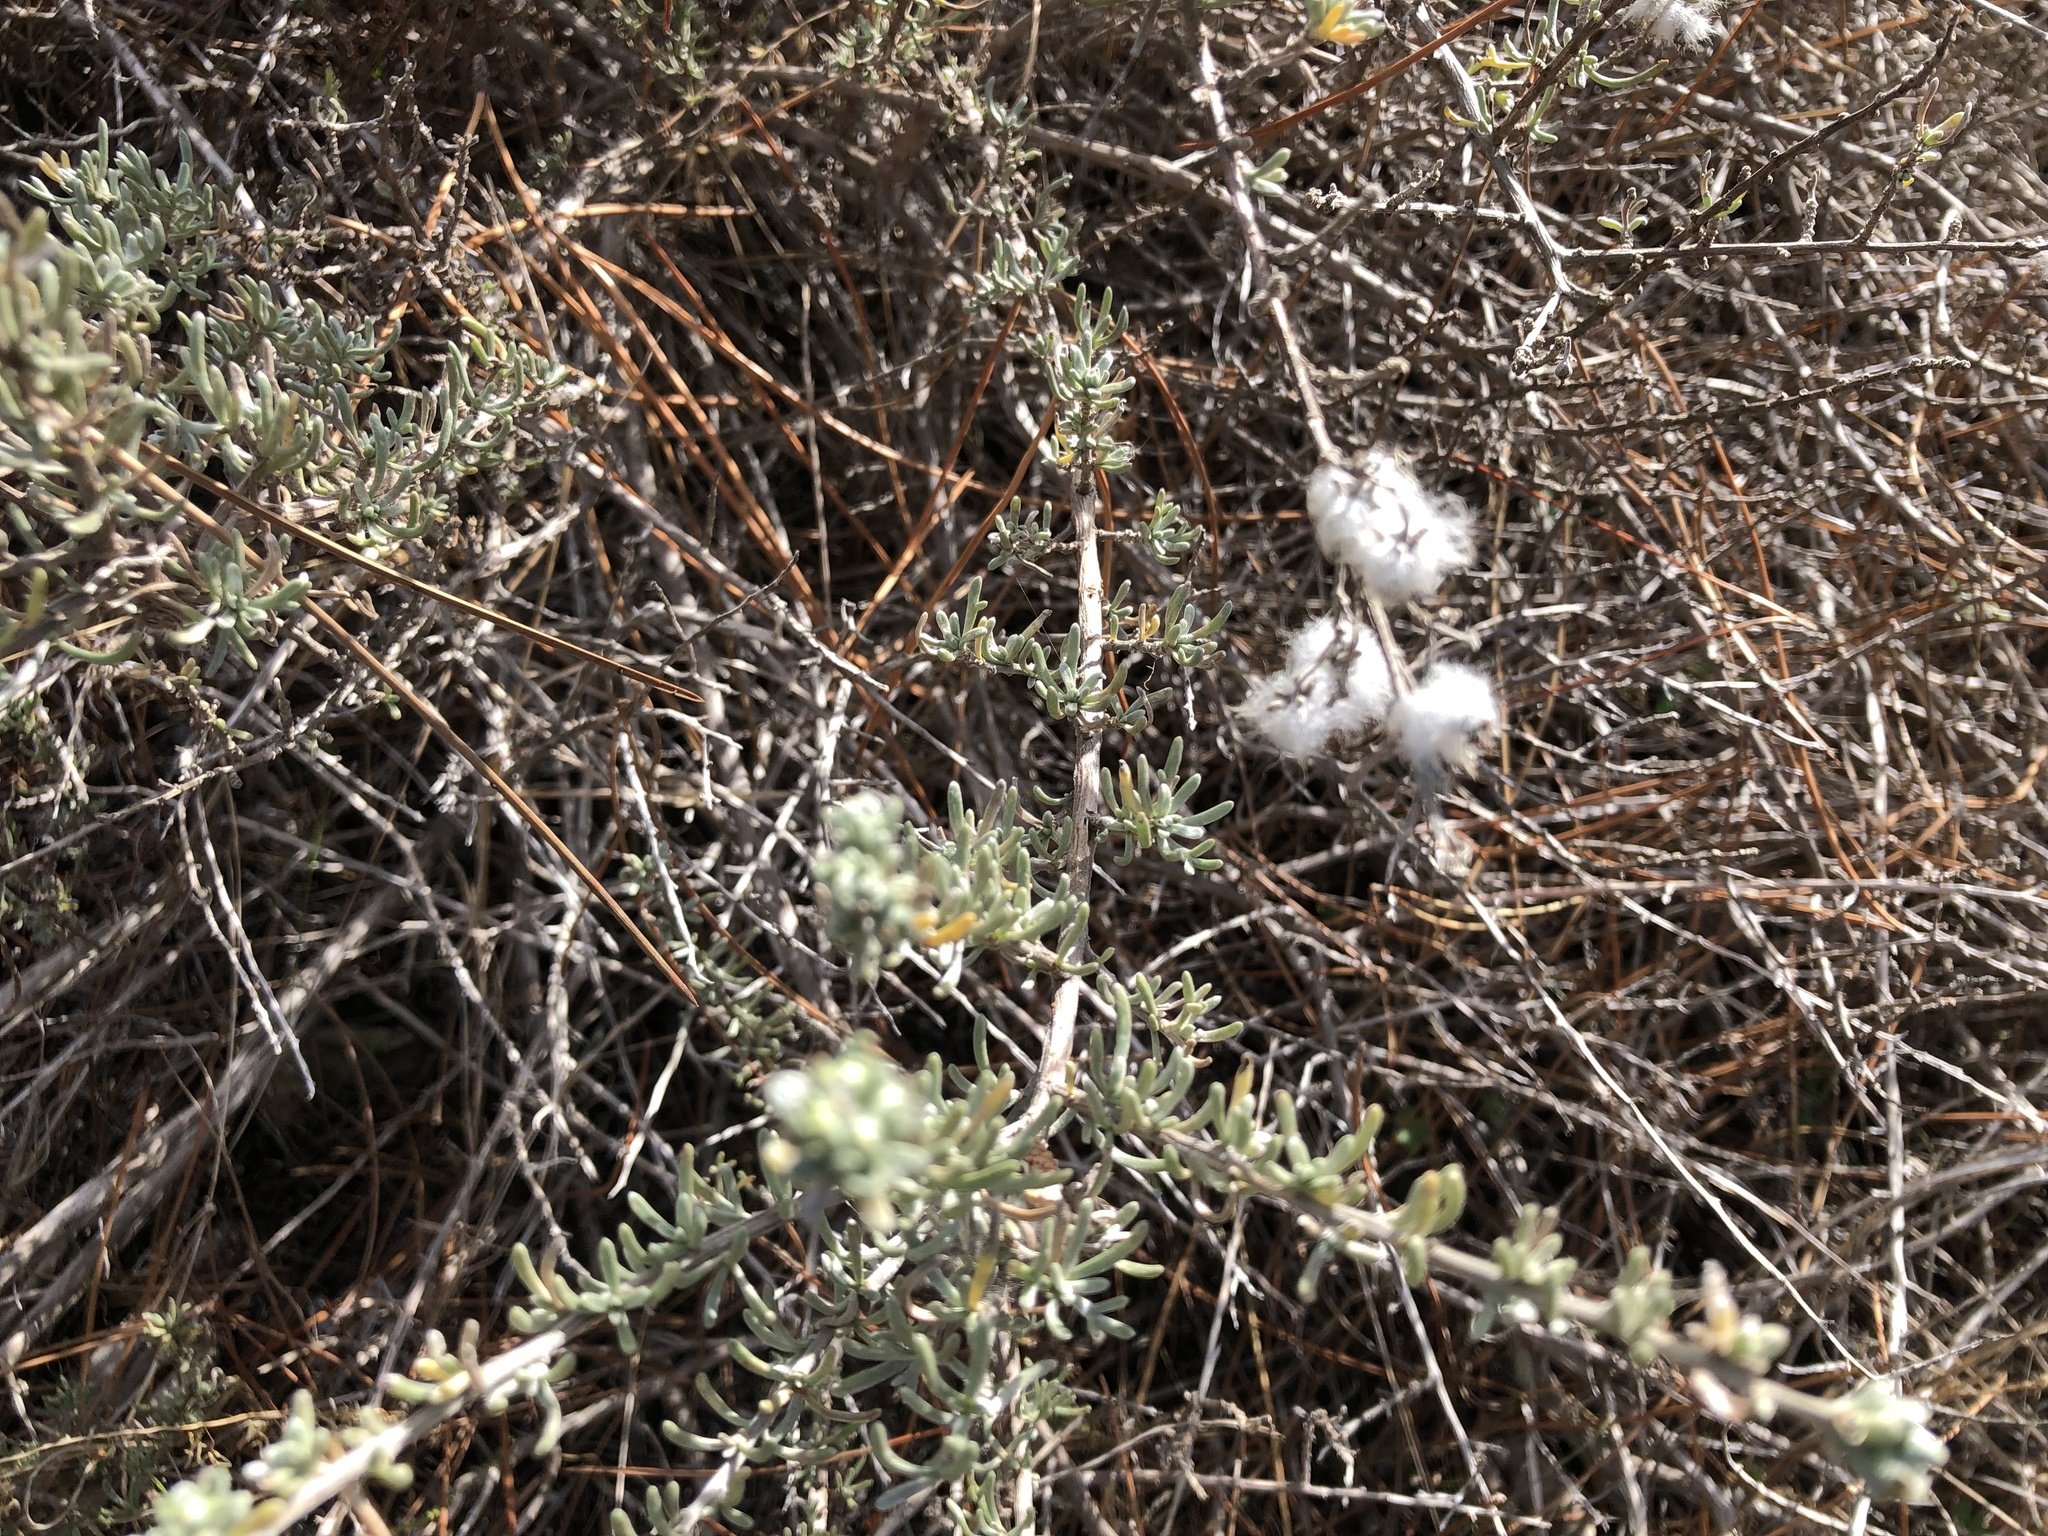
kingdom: Plantae
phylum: Tracheophyta
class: Magnoliopsida
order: Asterales
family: Asteraceae
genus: Eriocephalus
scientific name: Eriocephalus africanus
